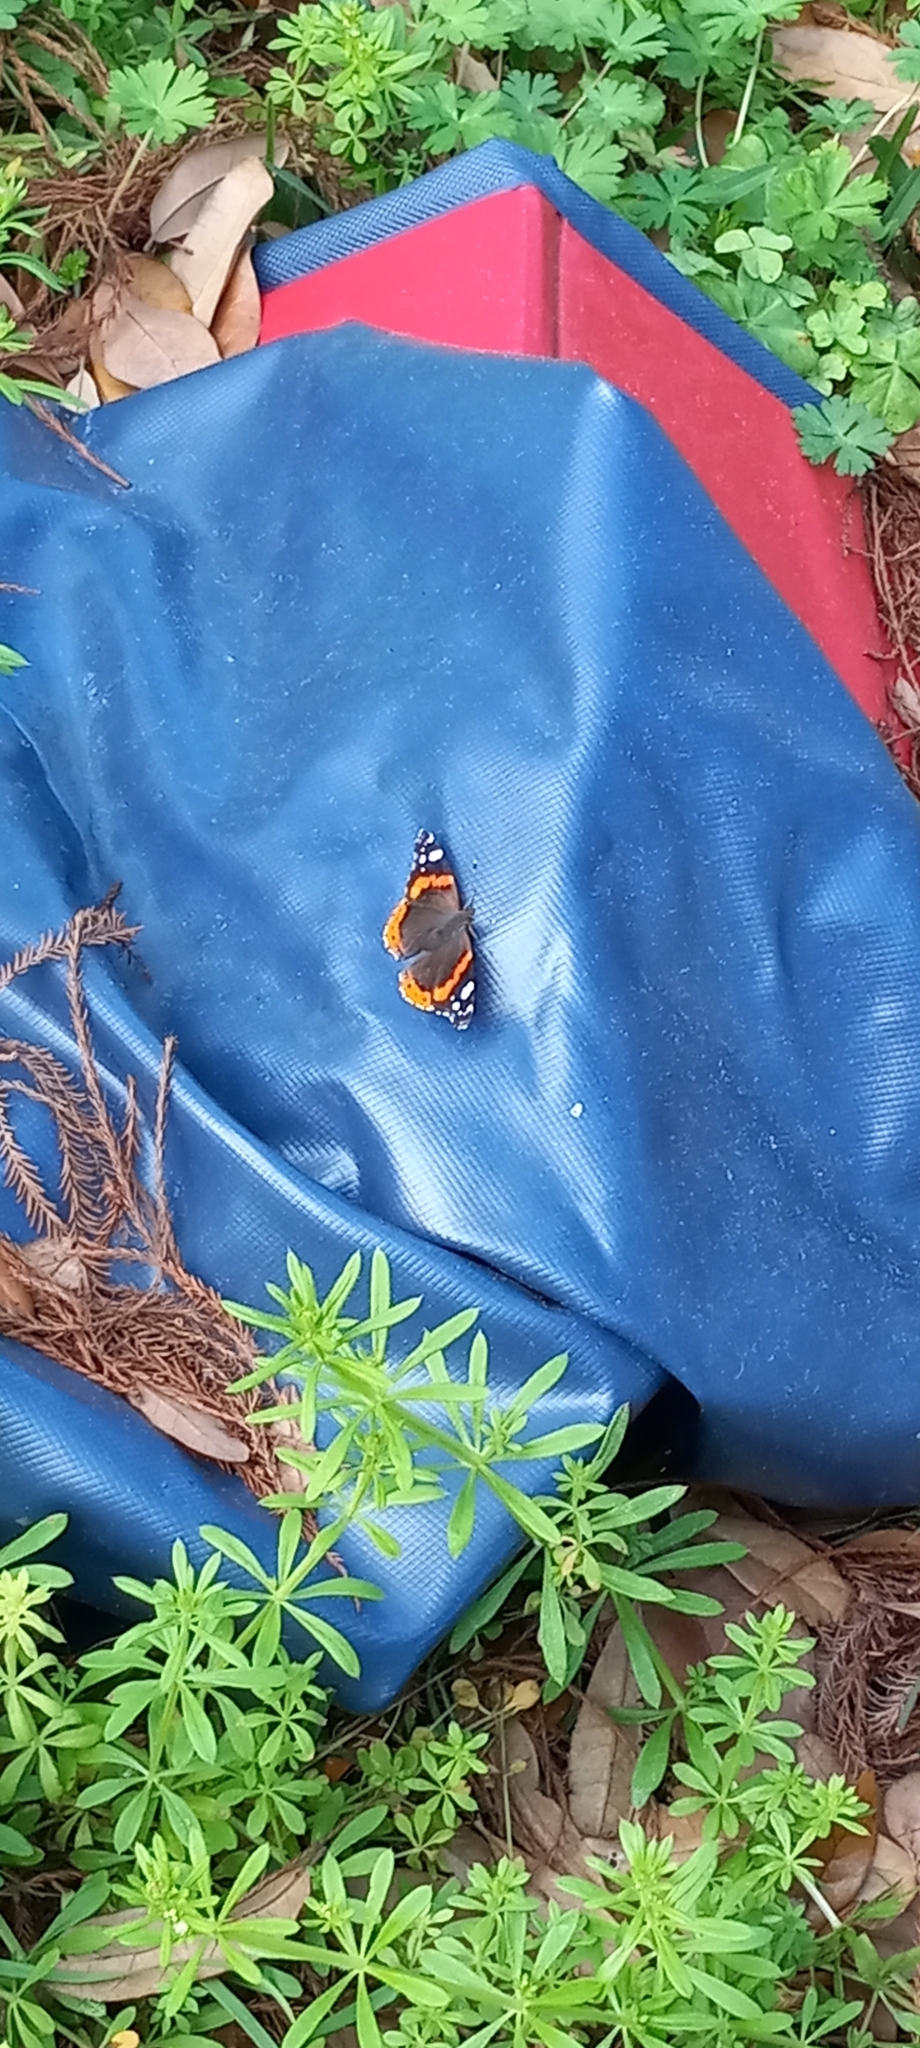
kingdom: Animalia
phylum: Arthropoda
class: Insecta
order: Lepidoptera
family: Nymphalidae
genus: Vanessa
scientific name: Vanessa atalanta
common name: Red admiral
